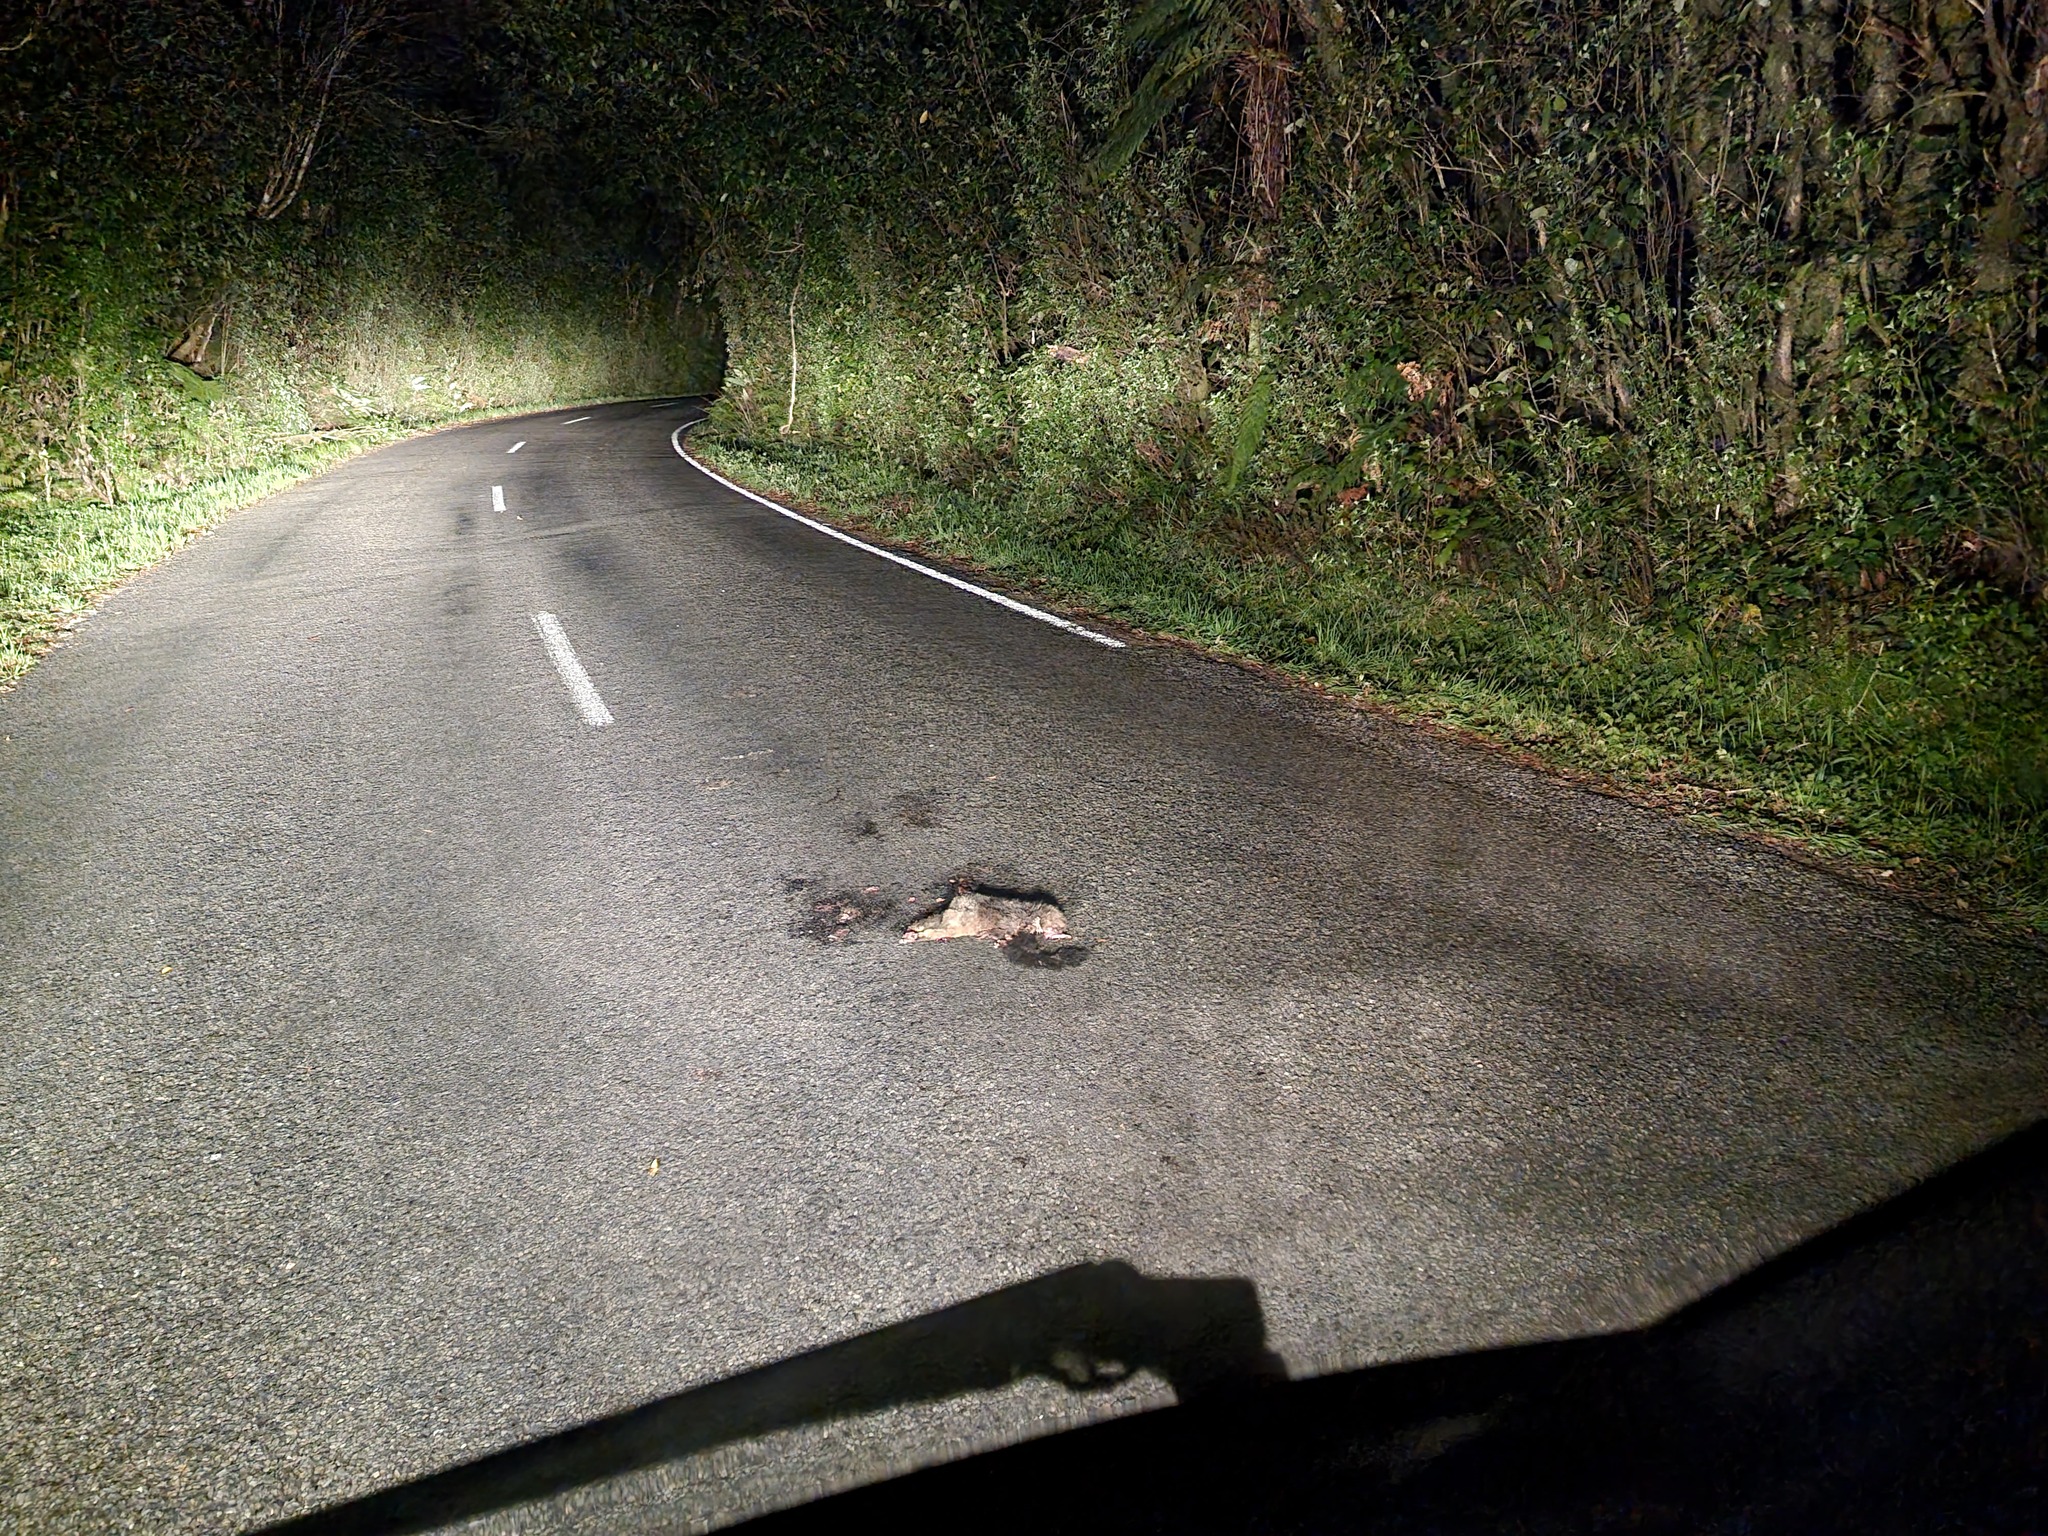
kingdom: Animalia
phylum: Chordata
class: Mammalia
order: Diprotodontia
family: Phalangeridae
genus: Trichosurus
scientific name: Trichosurus vulpecula
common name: Common brushtail
